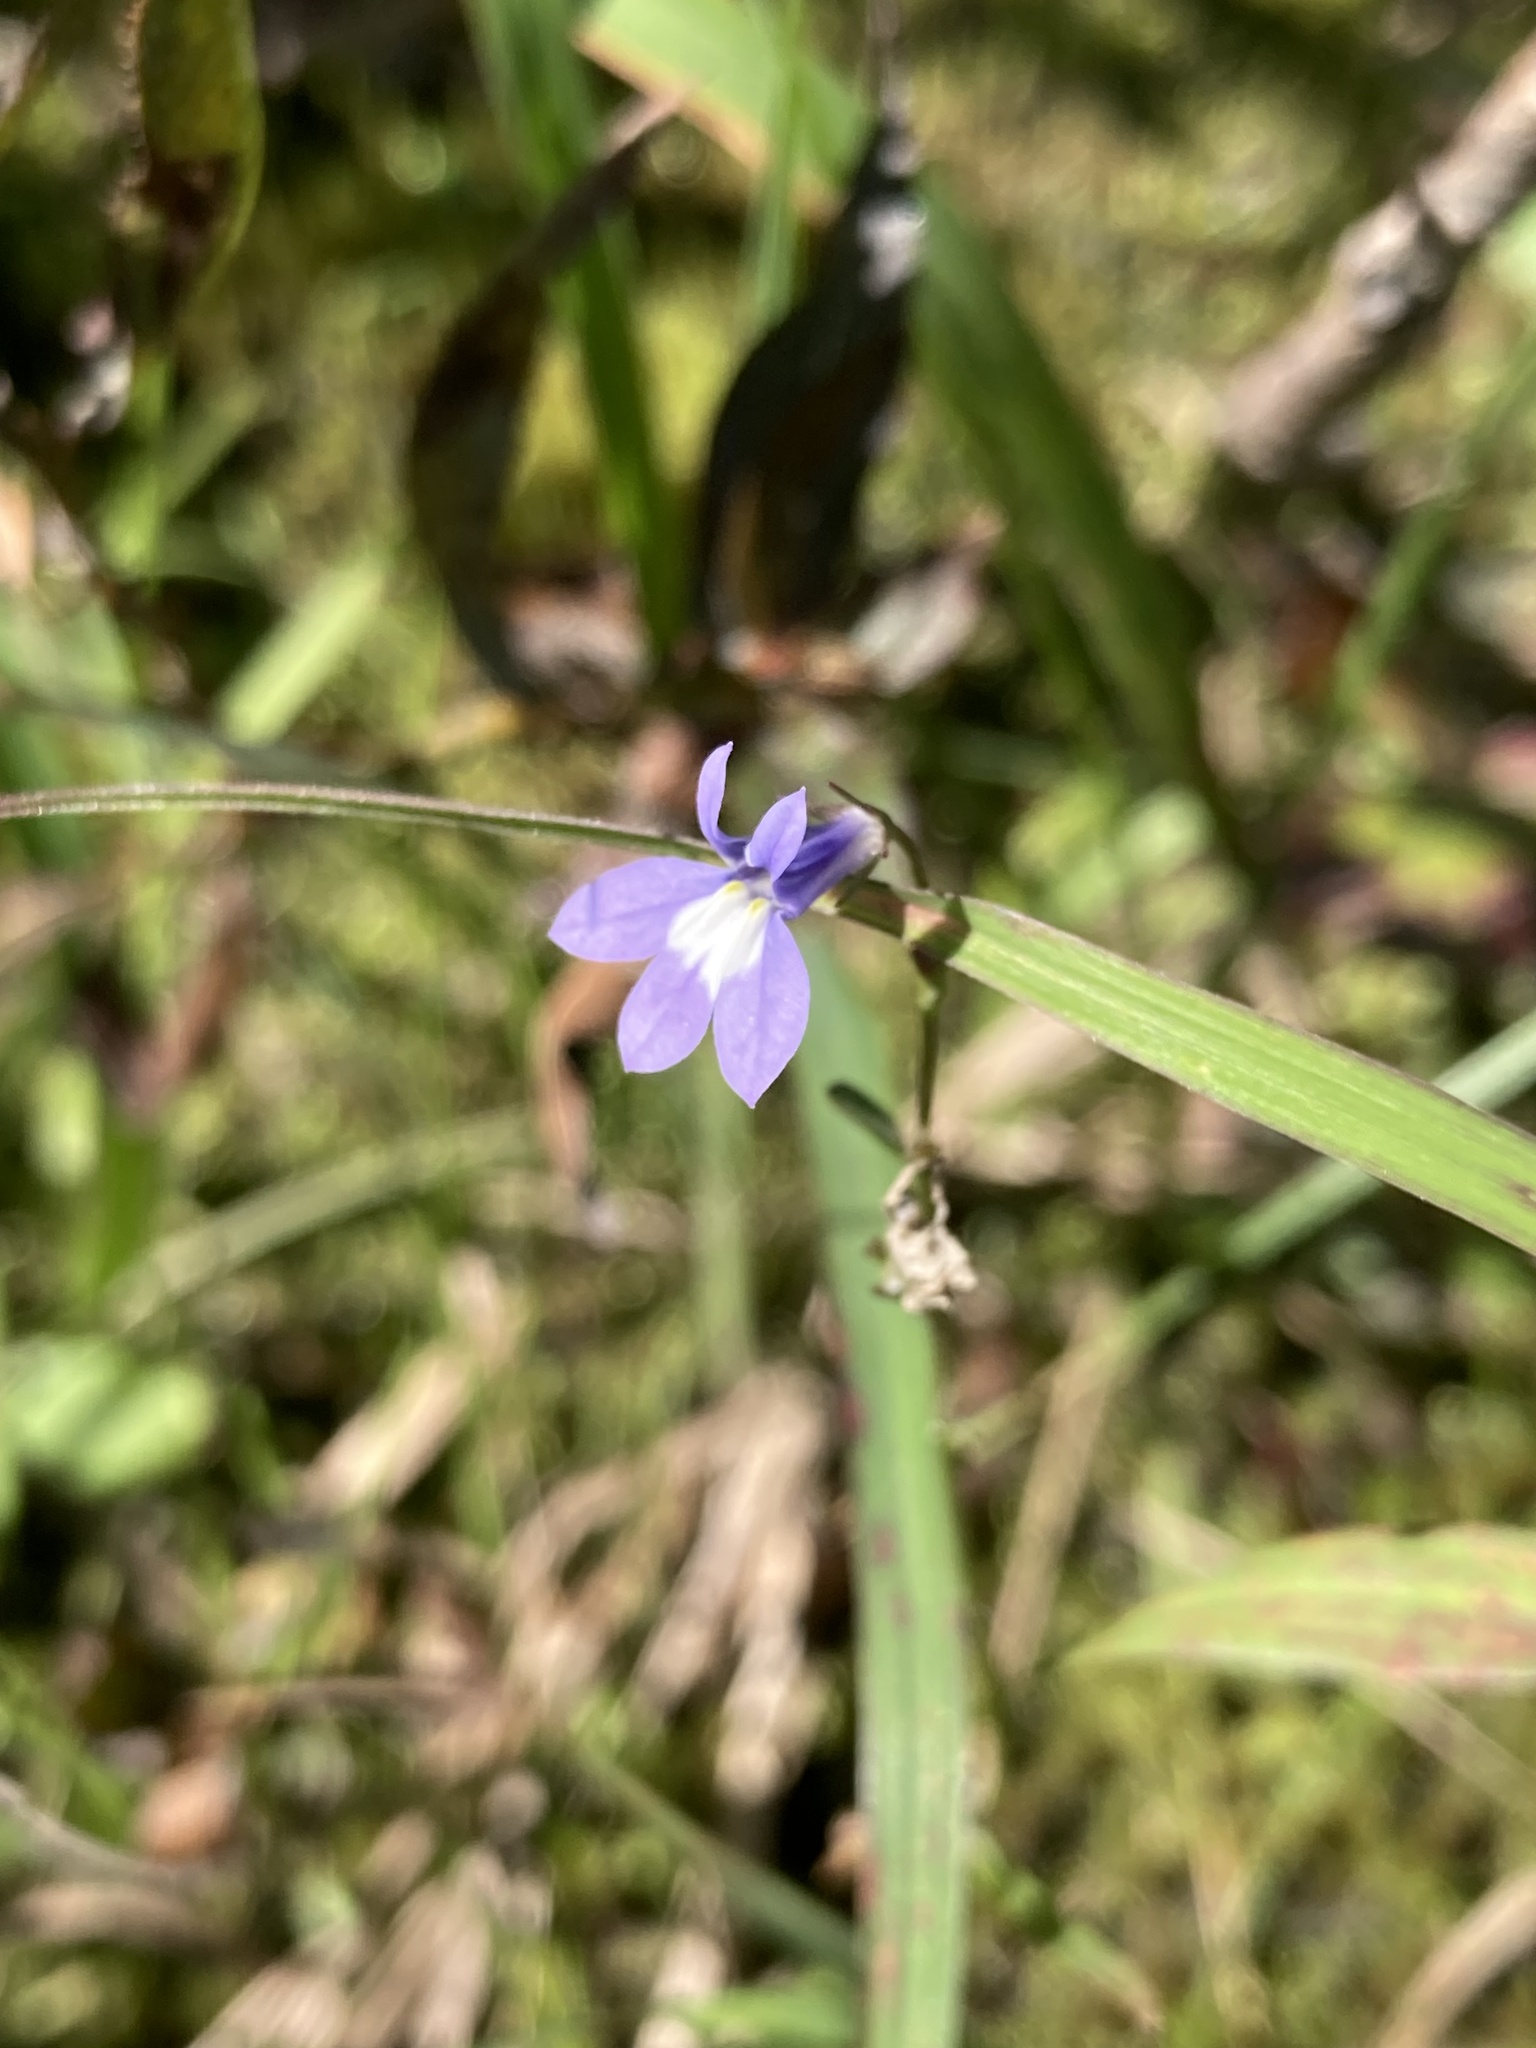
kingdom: Plantae
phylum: Tracheophyta
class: Magnoliopsida
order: Asterales
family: Campanulaceae
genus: Lobelia
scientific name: Lobelia kalmii
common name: Kalm's lobelia
